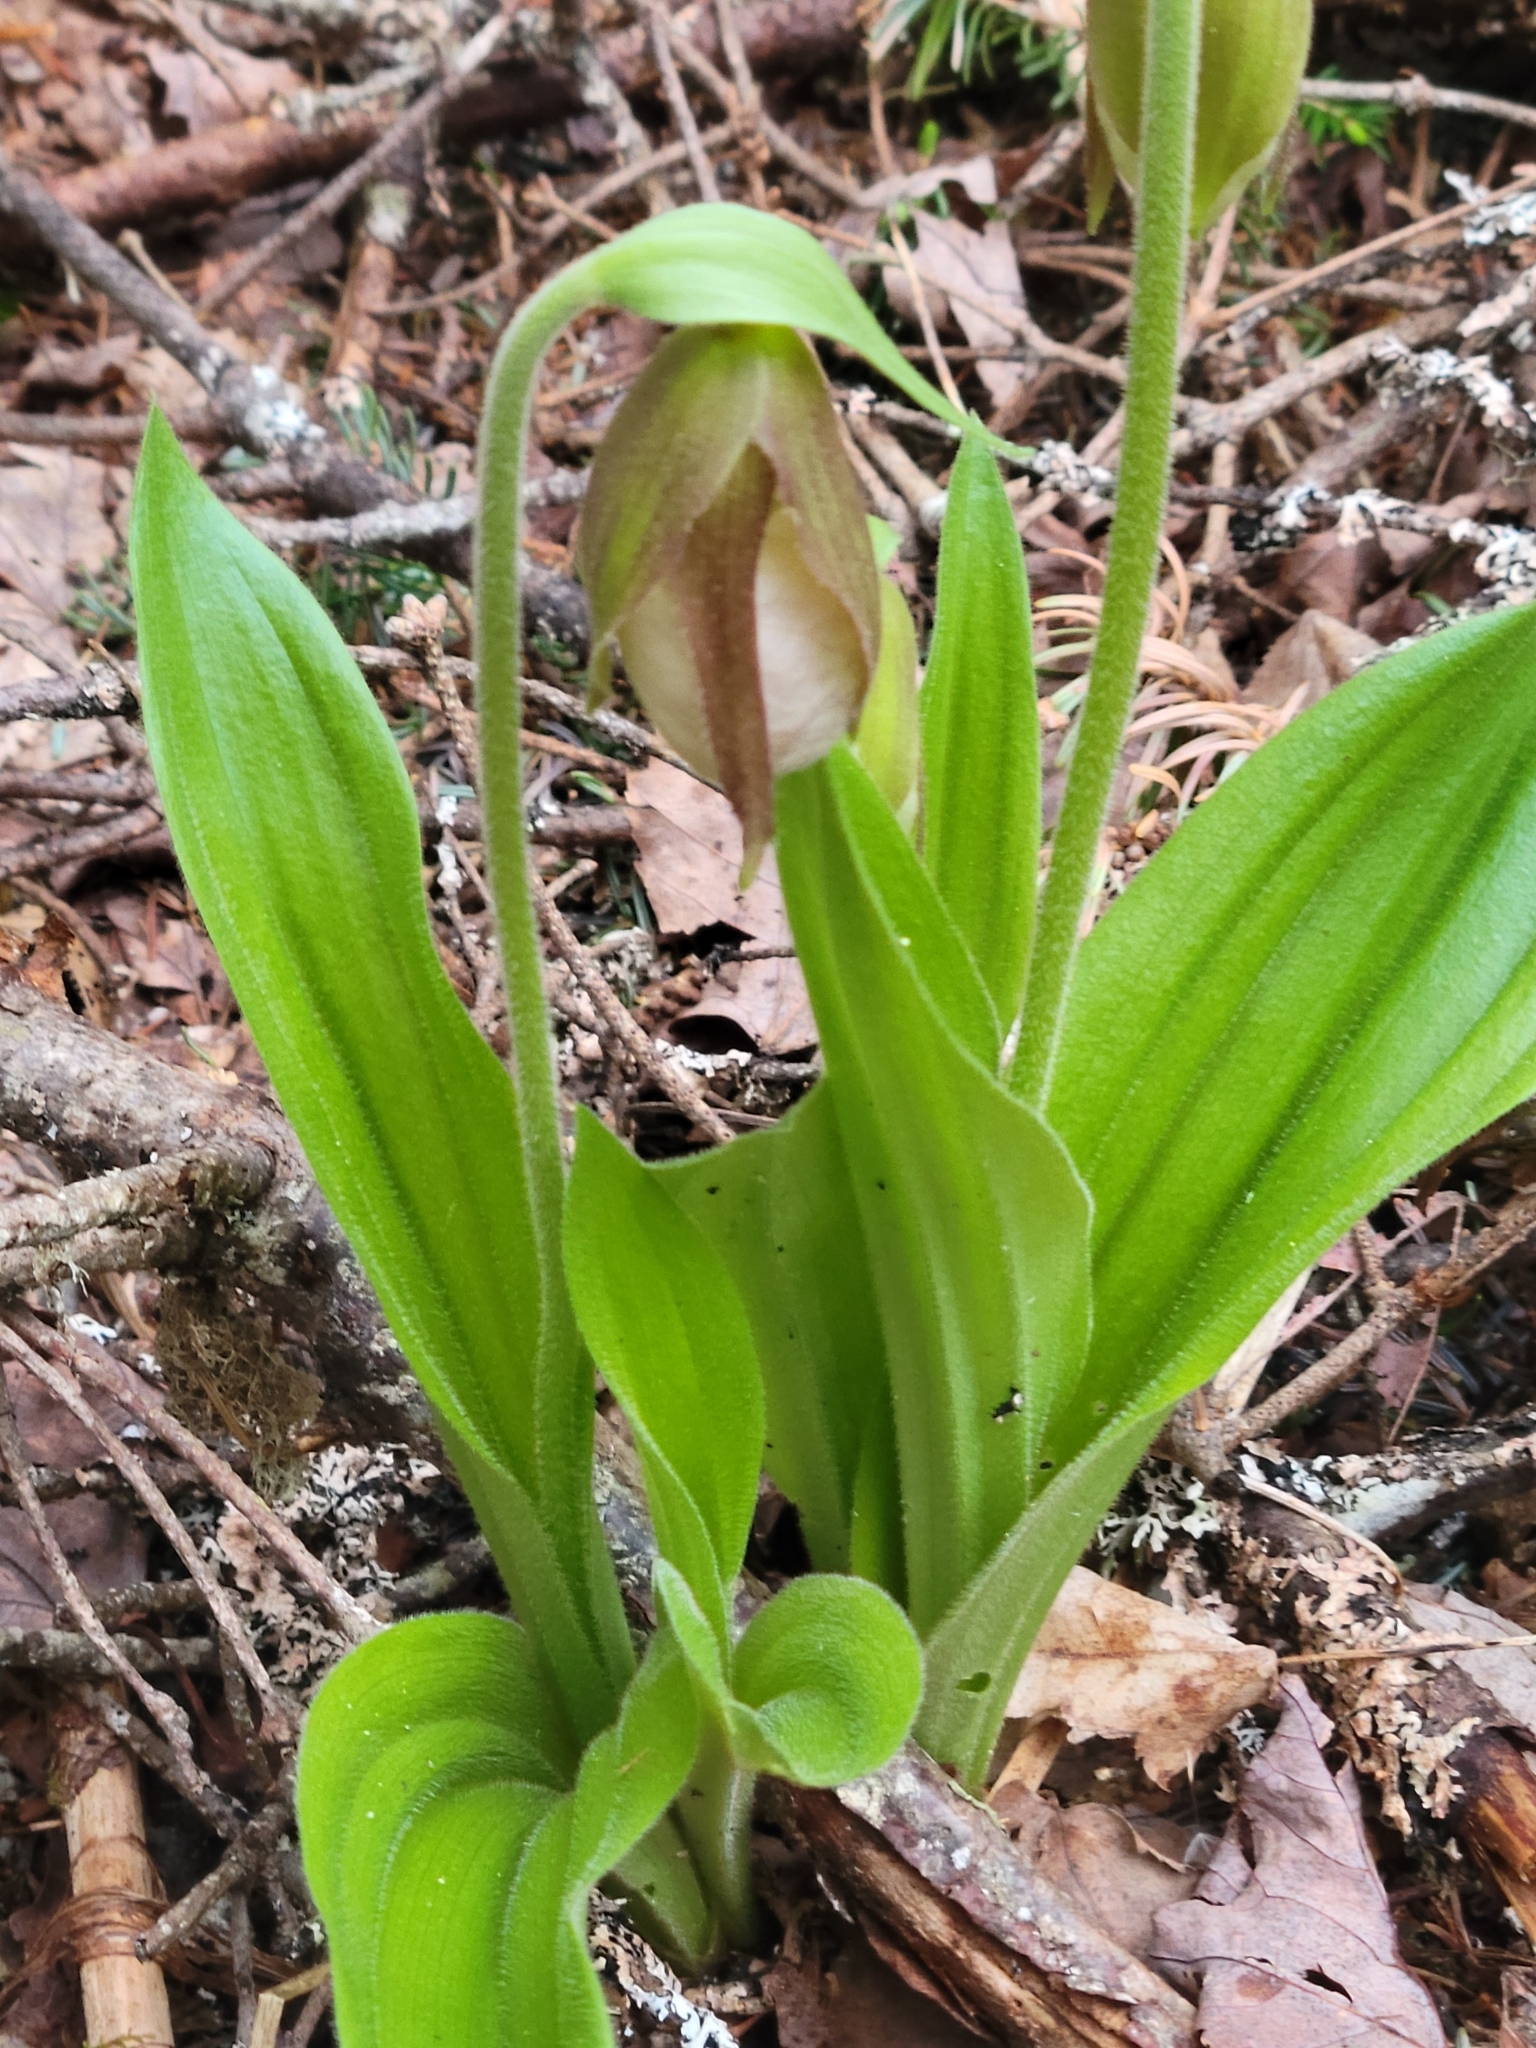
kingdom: Plantae
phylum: Tracheophyta
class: Liliopsida
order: Asparagales
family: Orchidaceae
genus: Cypripedium
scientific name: Cypripedium acaule
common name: Pink lady's-slipper
